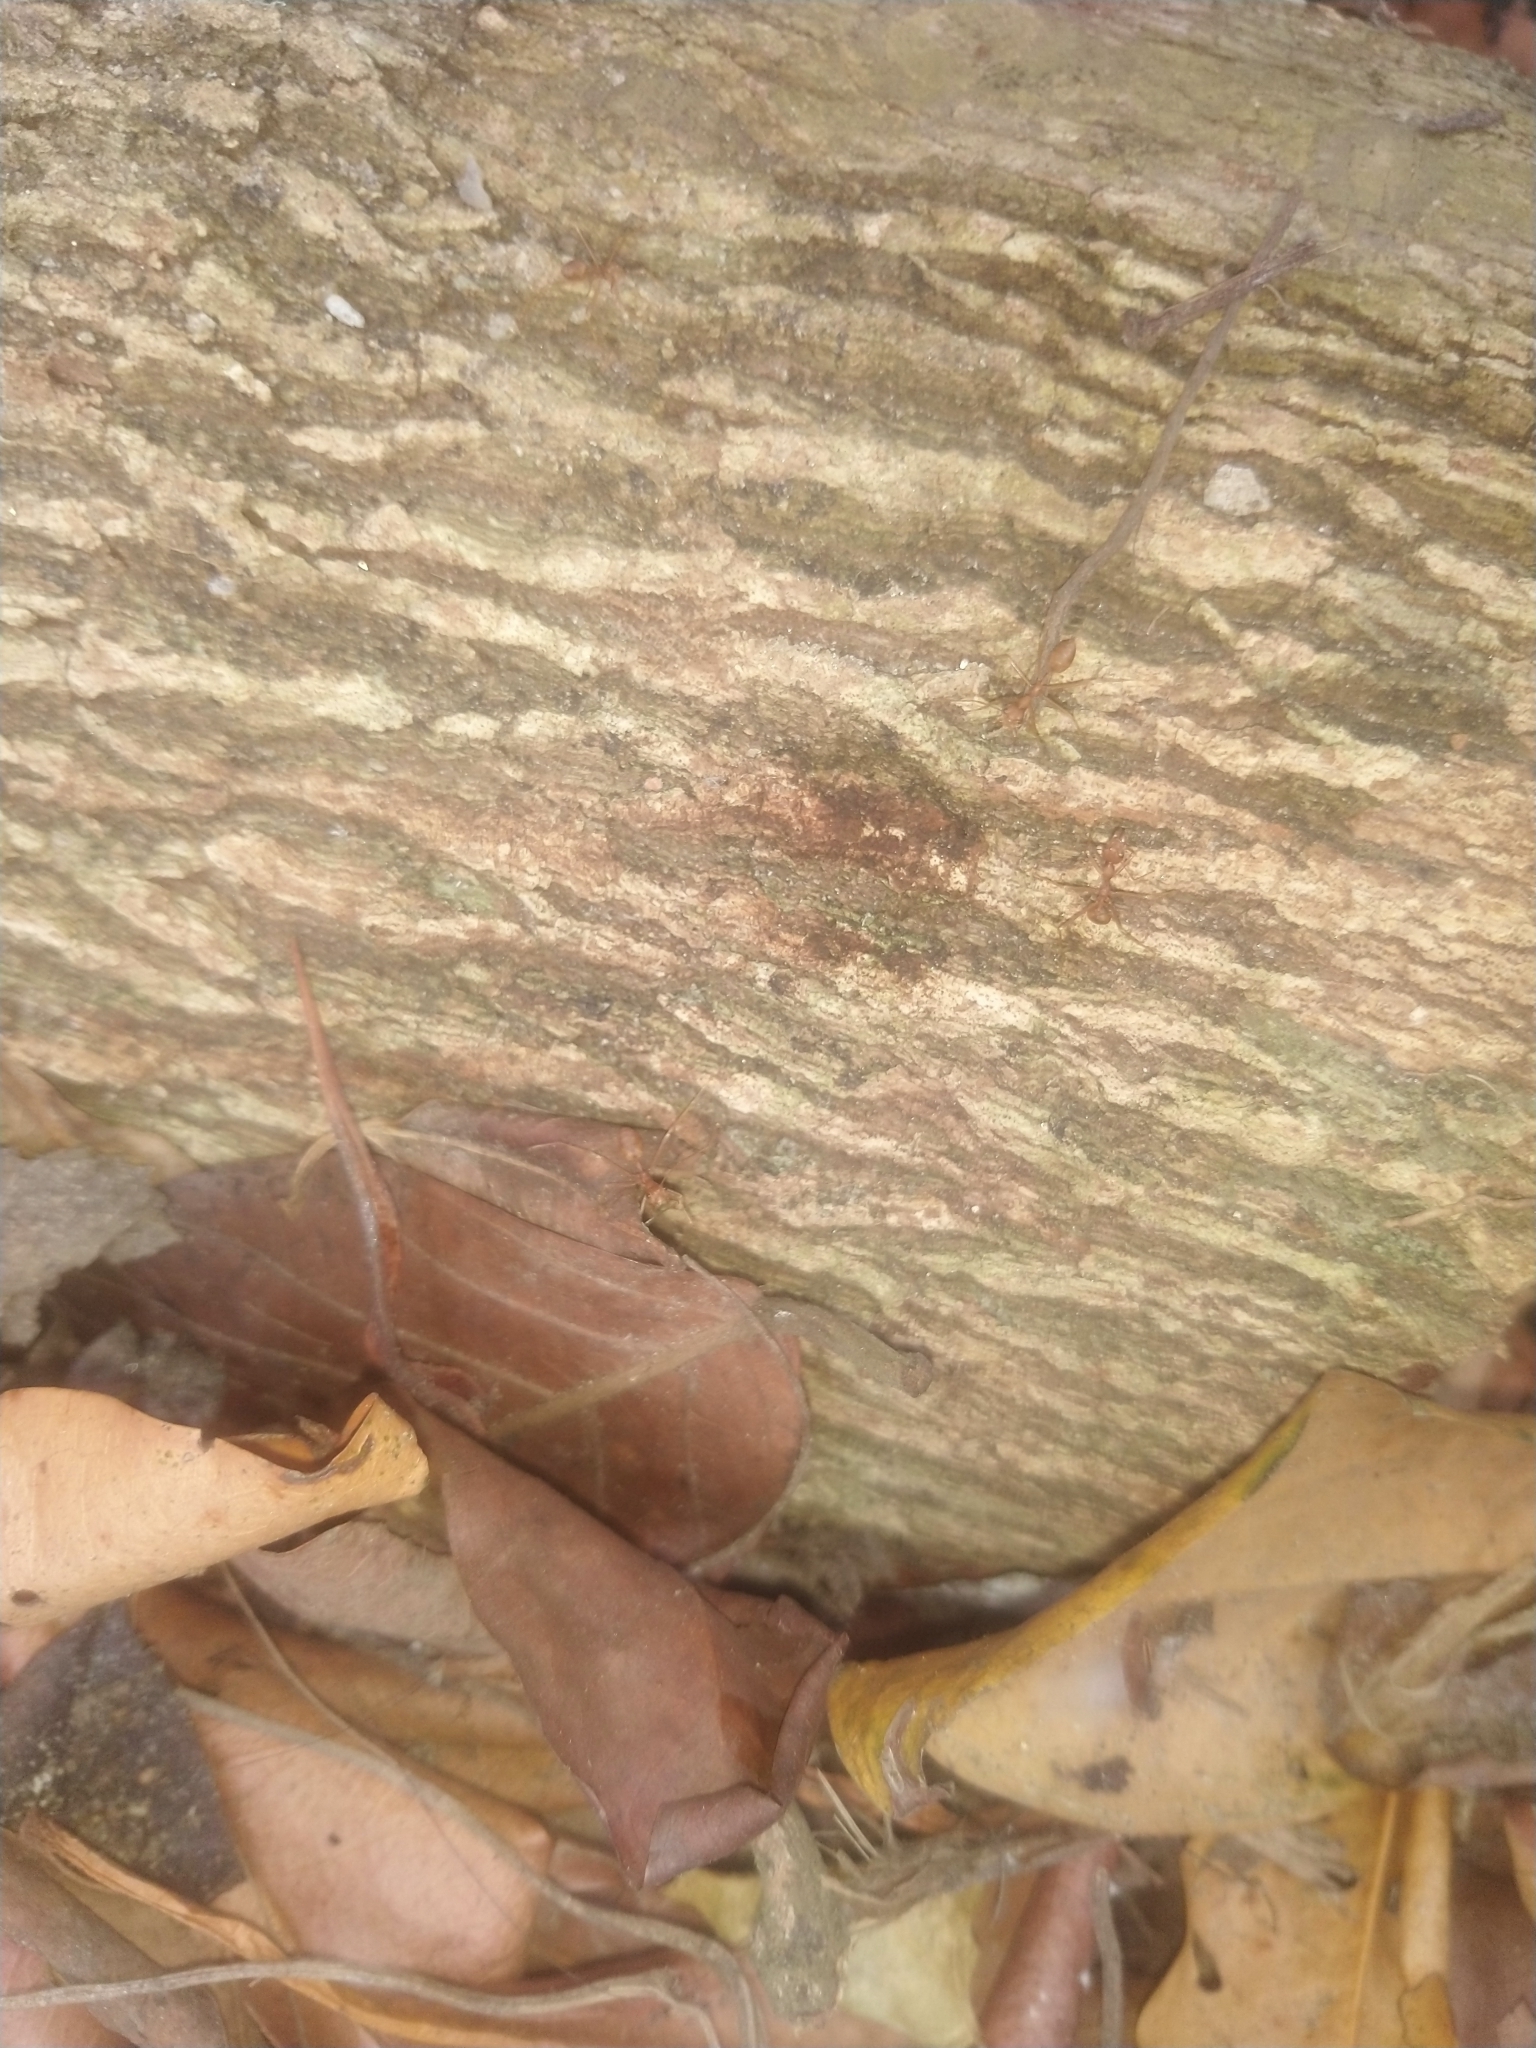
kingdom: Animalia
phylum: Arthropoda
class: Insecta
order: Hymenoptera
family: Formicidae
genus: Oecophylla
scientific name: Oecophylla smaragdina
